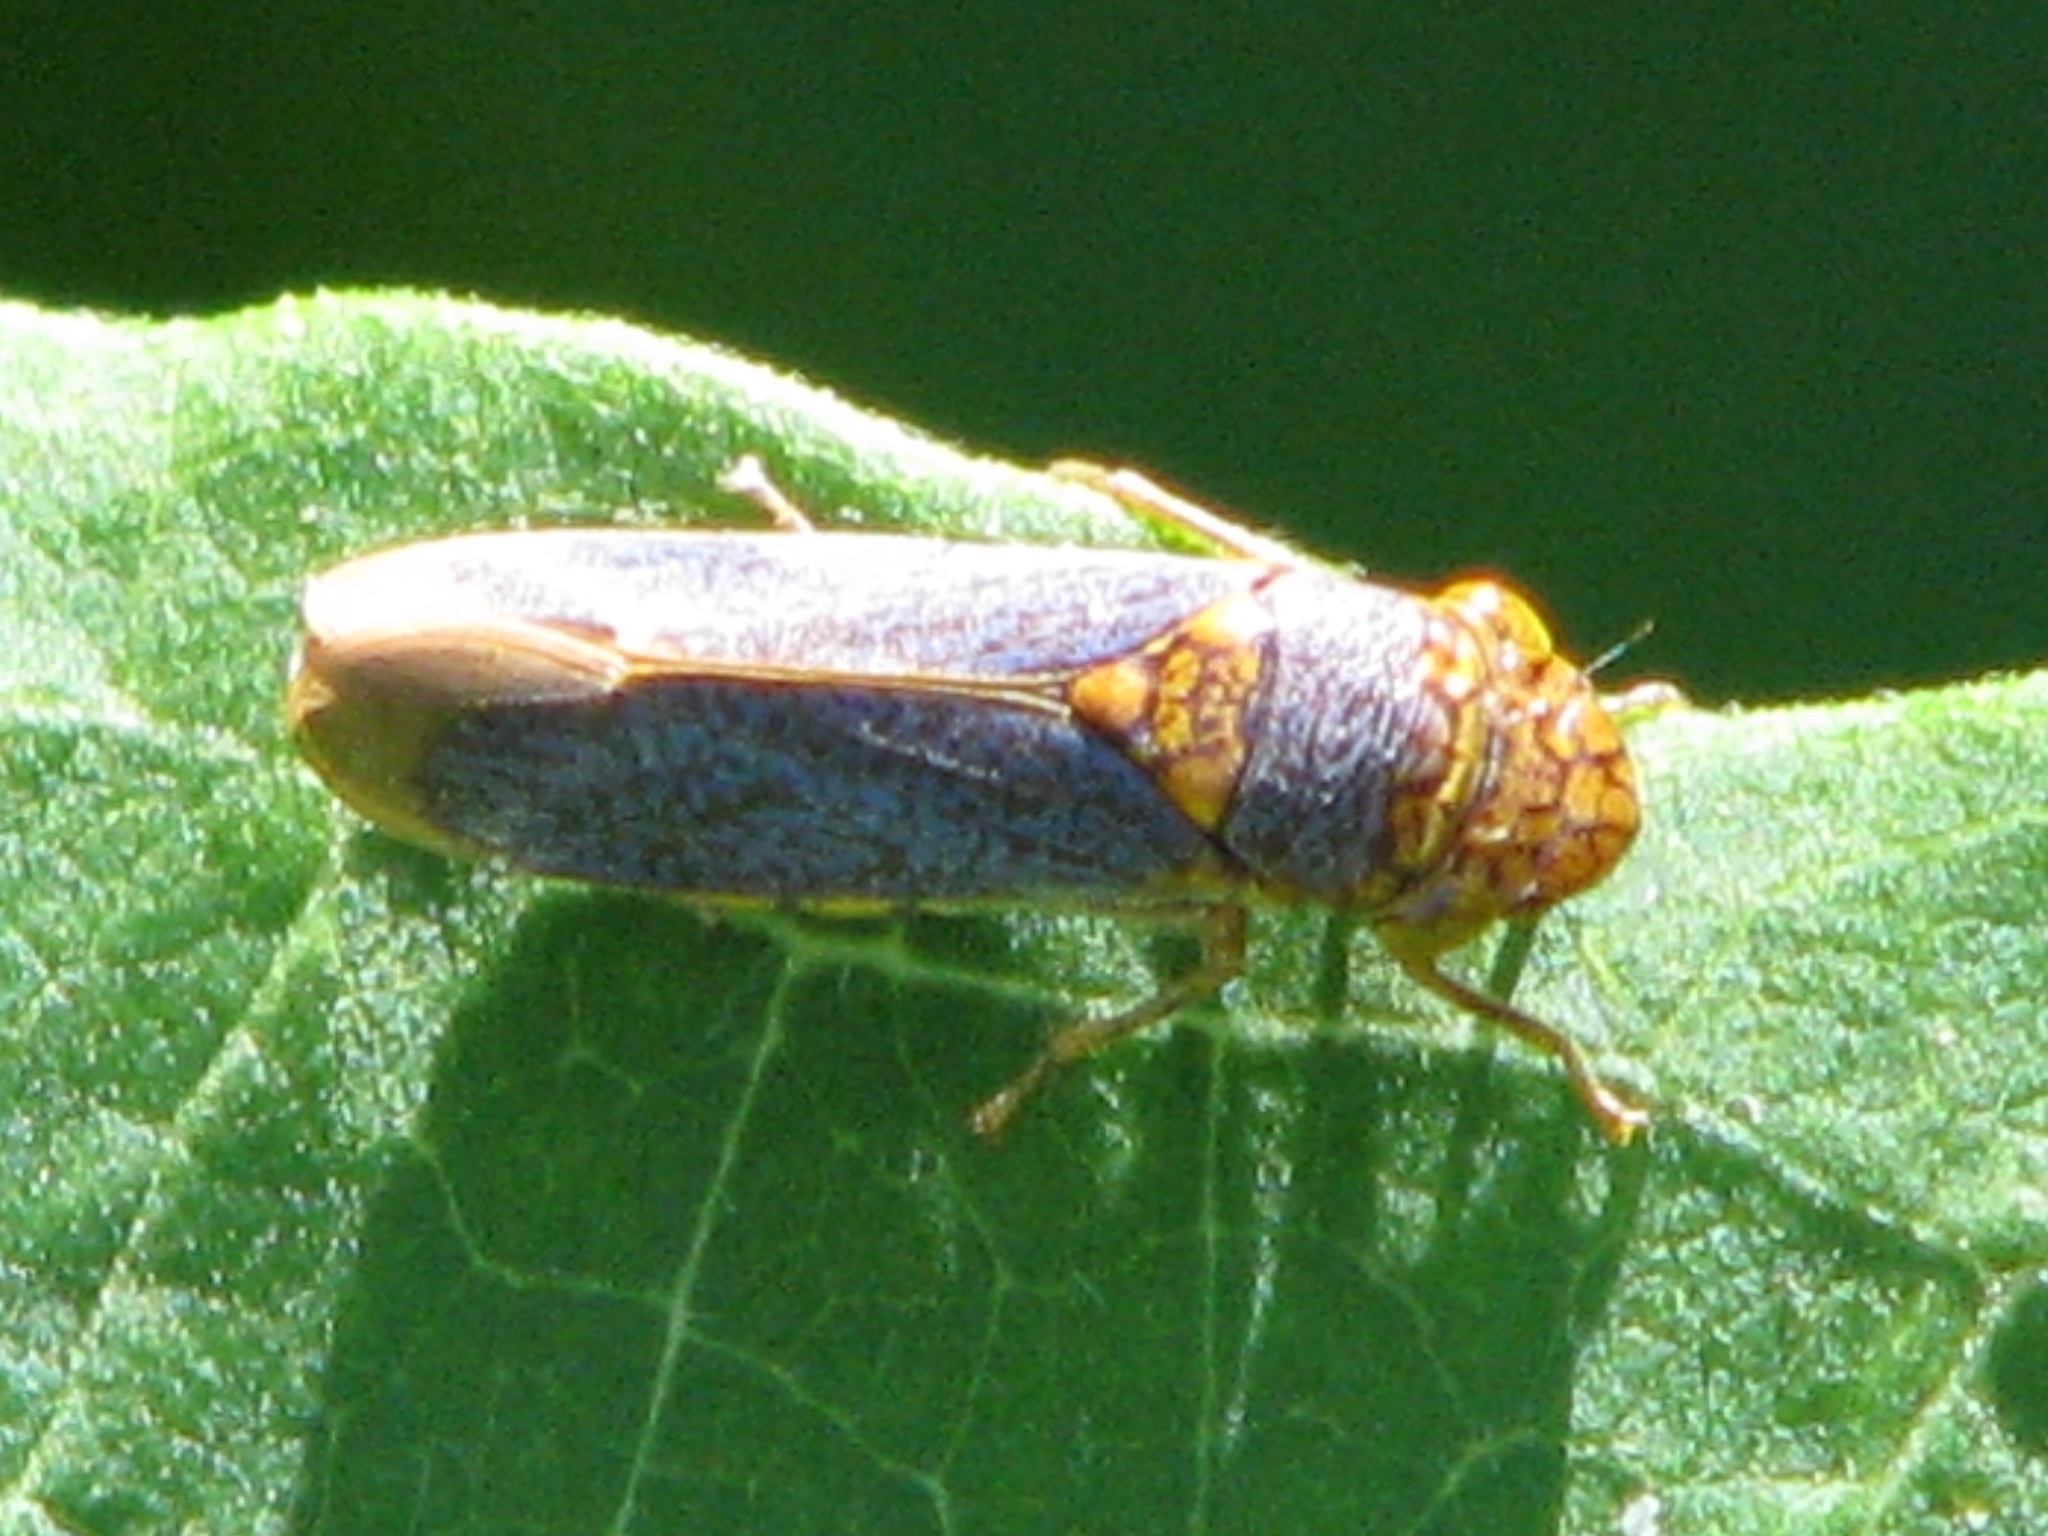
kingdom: Animalia
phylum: Arthropoda
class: Insecta
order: Hemiptera
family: Cicadellidae
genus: Oncometopia
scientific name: Oncometopia orbona
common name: Broad-headed sharpshooter
